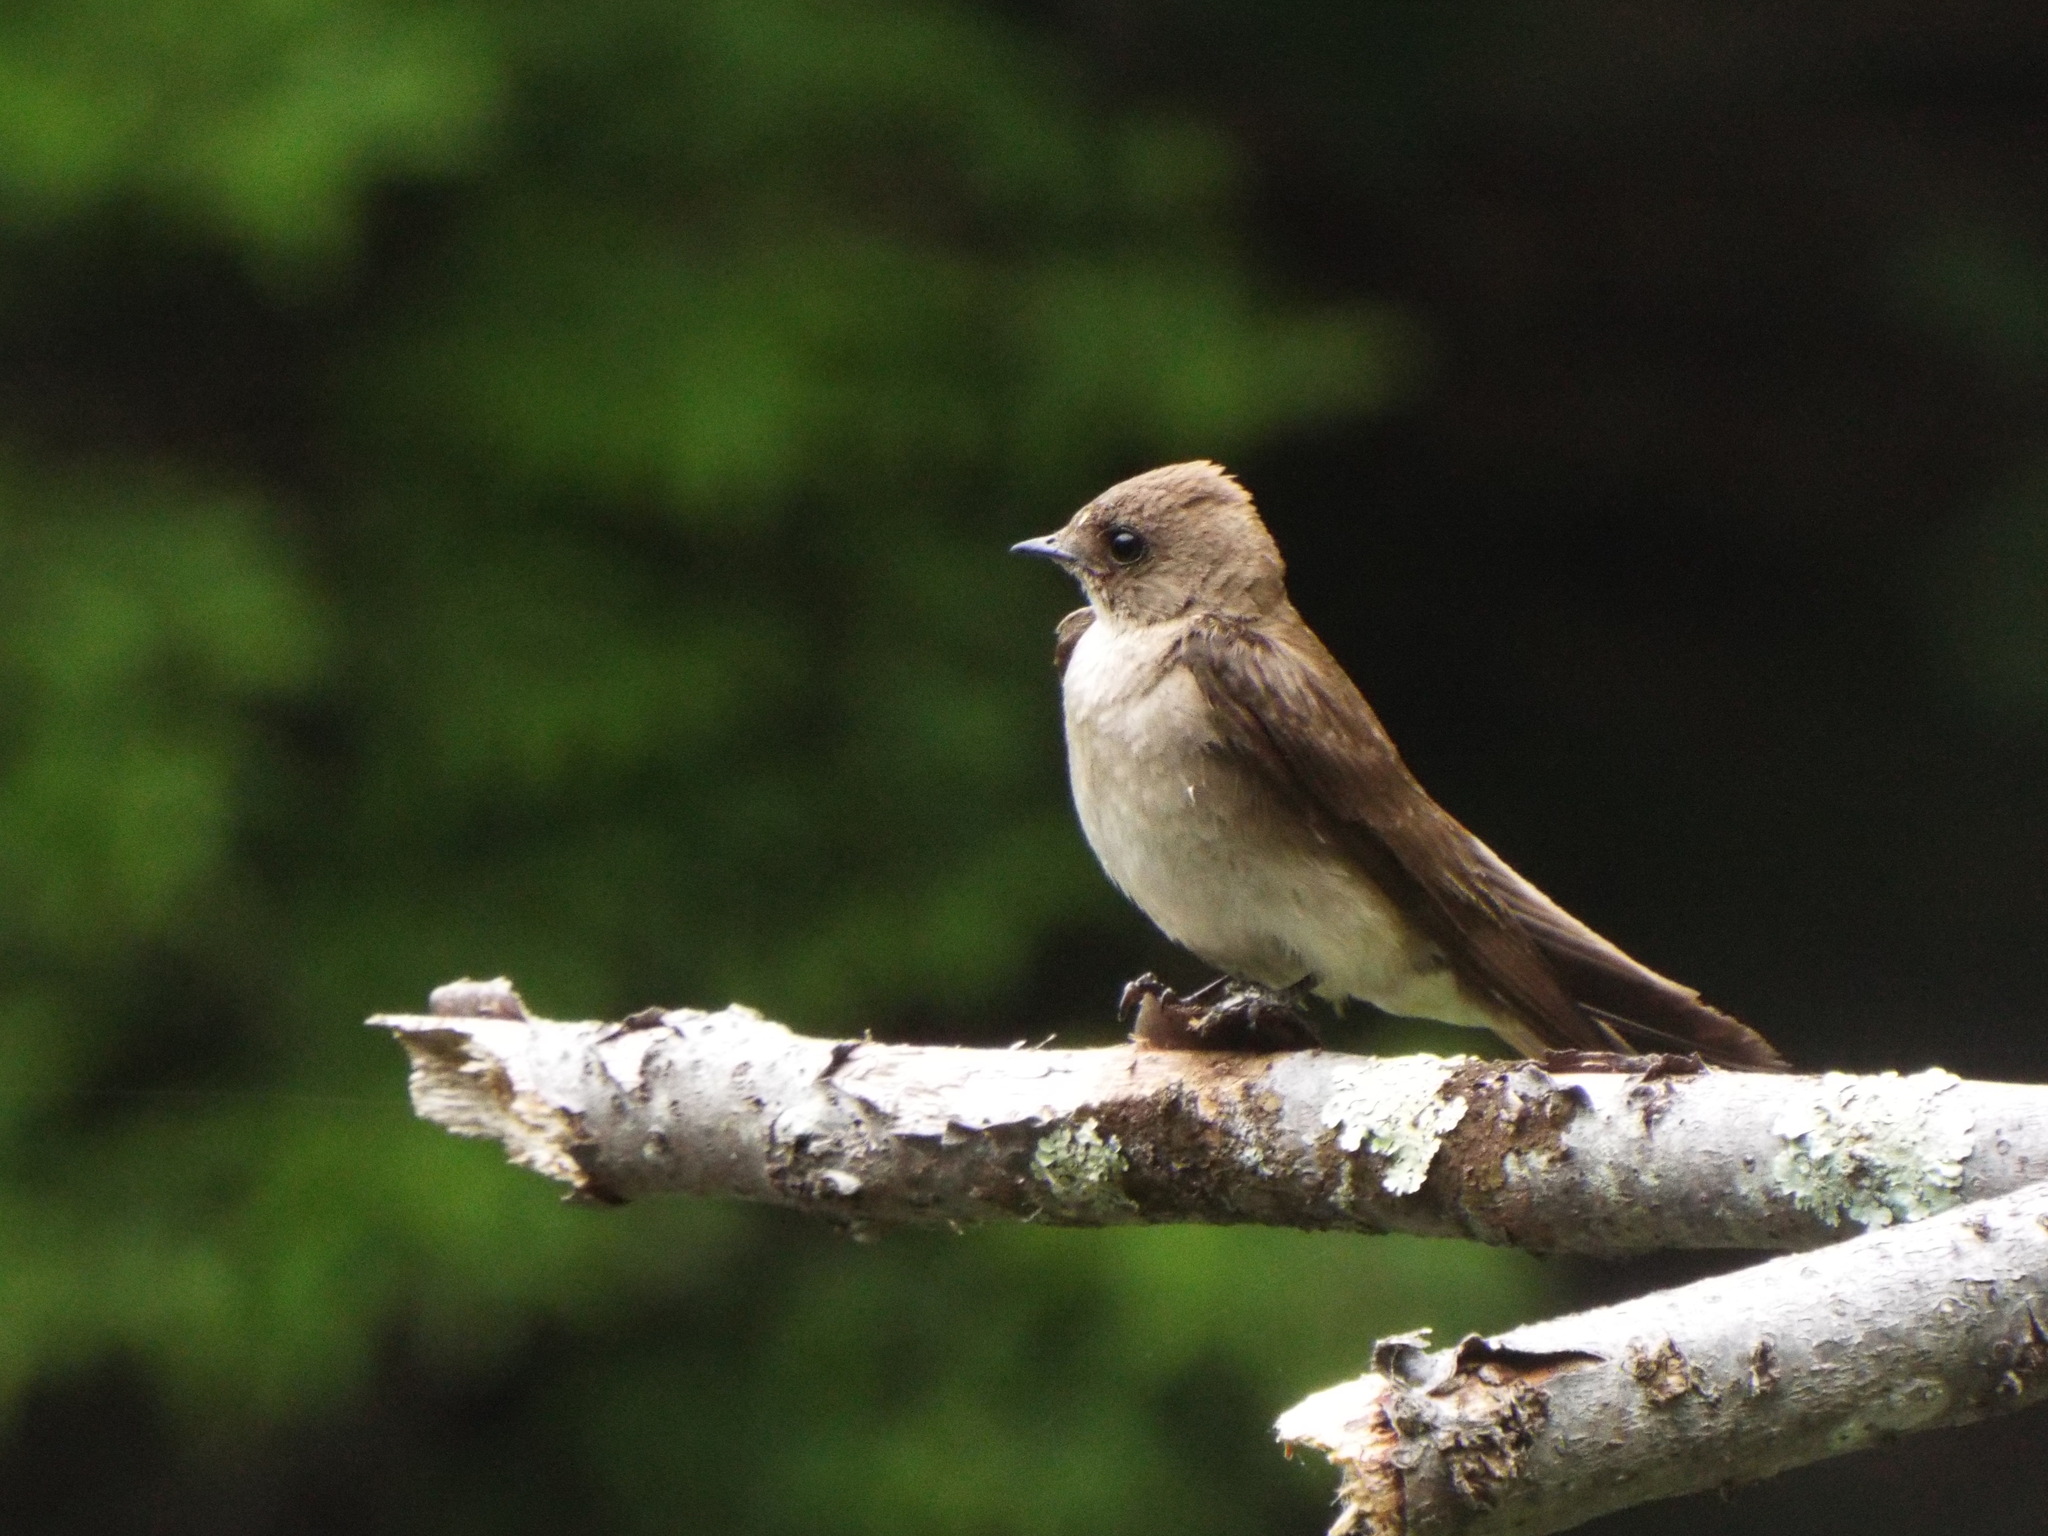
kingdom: Animalia
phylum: Chordata
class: Aves
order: Passeriformes
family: Hirundinidae
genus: Stelgidopteryx
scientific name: Stelgidopteryx serripennis
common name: Northern rough-winged swallow
